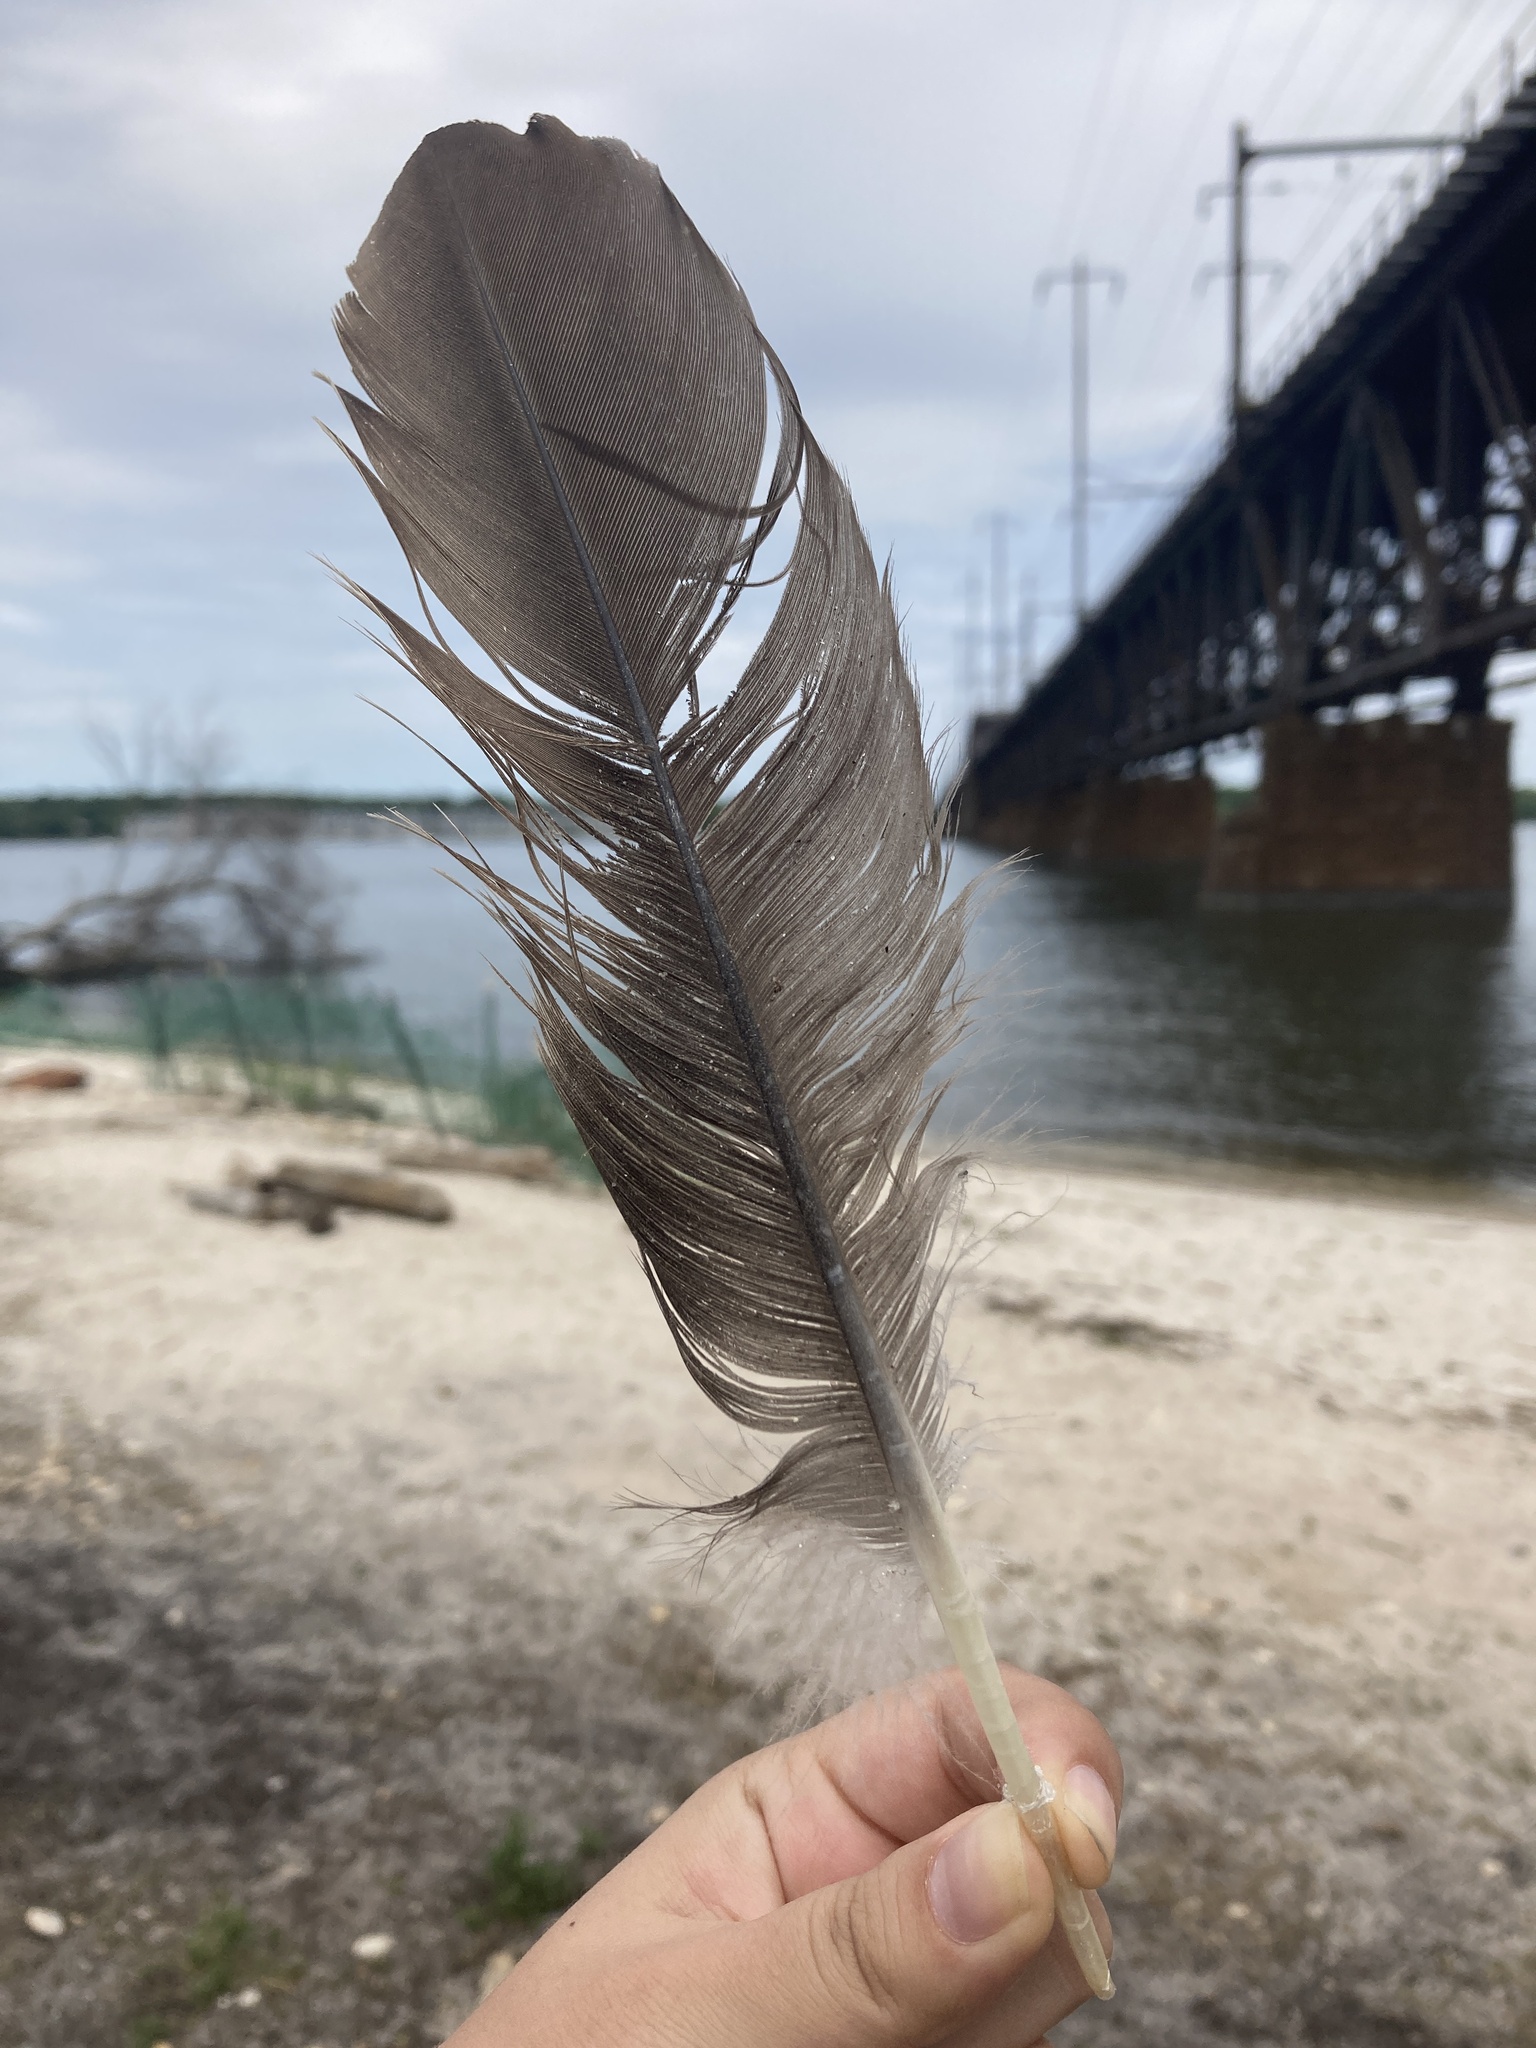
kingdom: Animalia
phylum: Chordata
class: Aves
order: Anseriformes
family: Anatidae
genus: Branta
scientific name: Branta canadensis
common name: Canada goose
